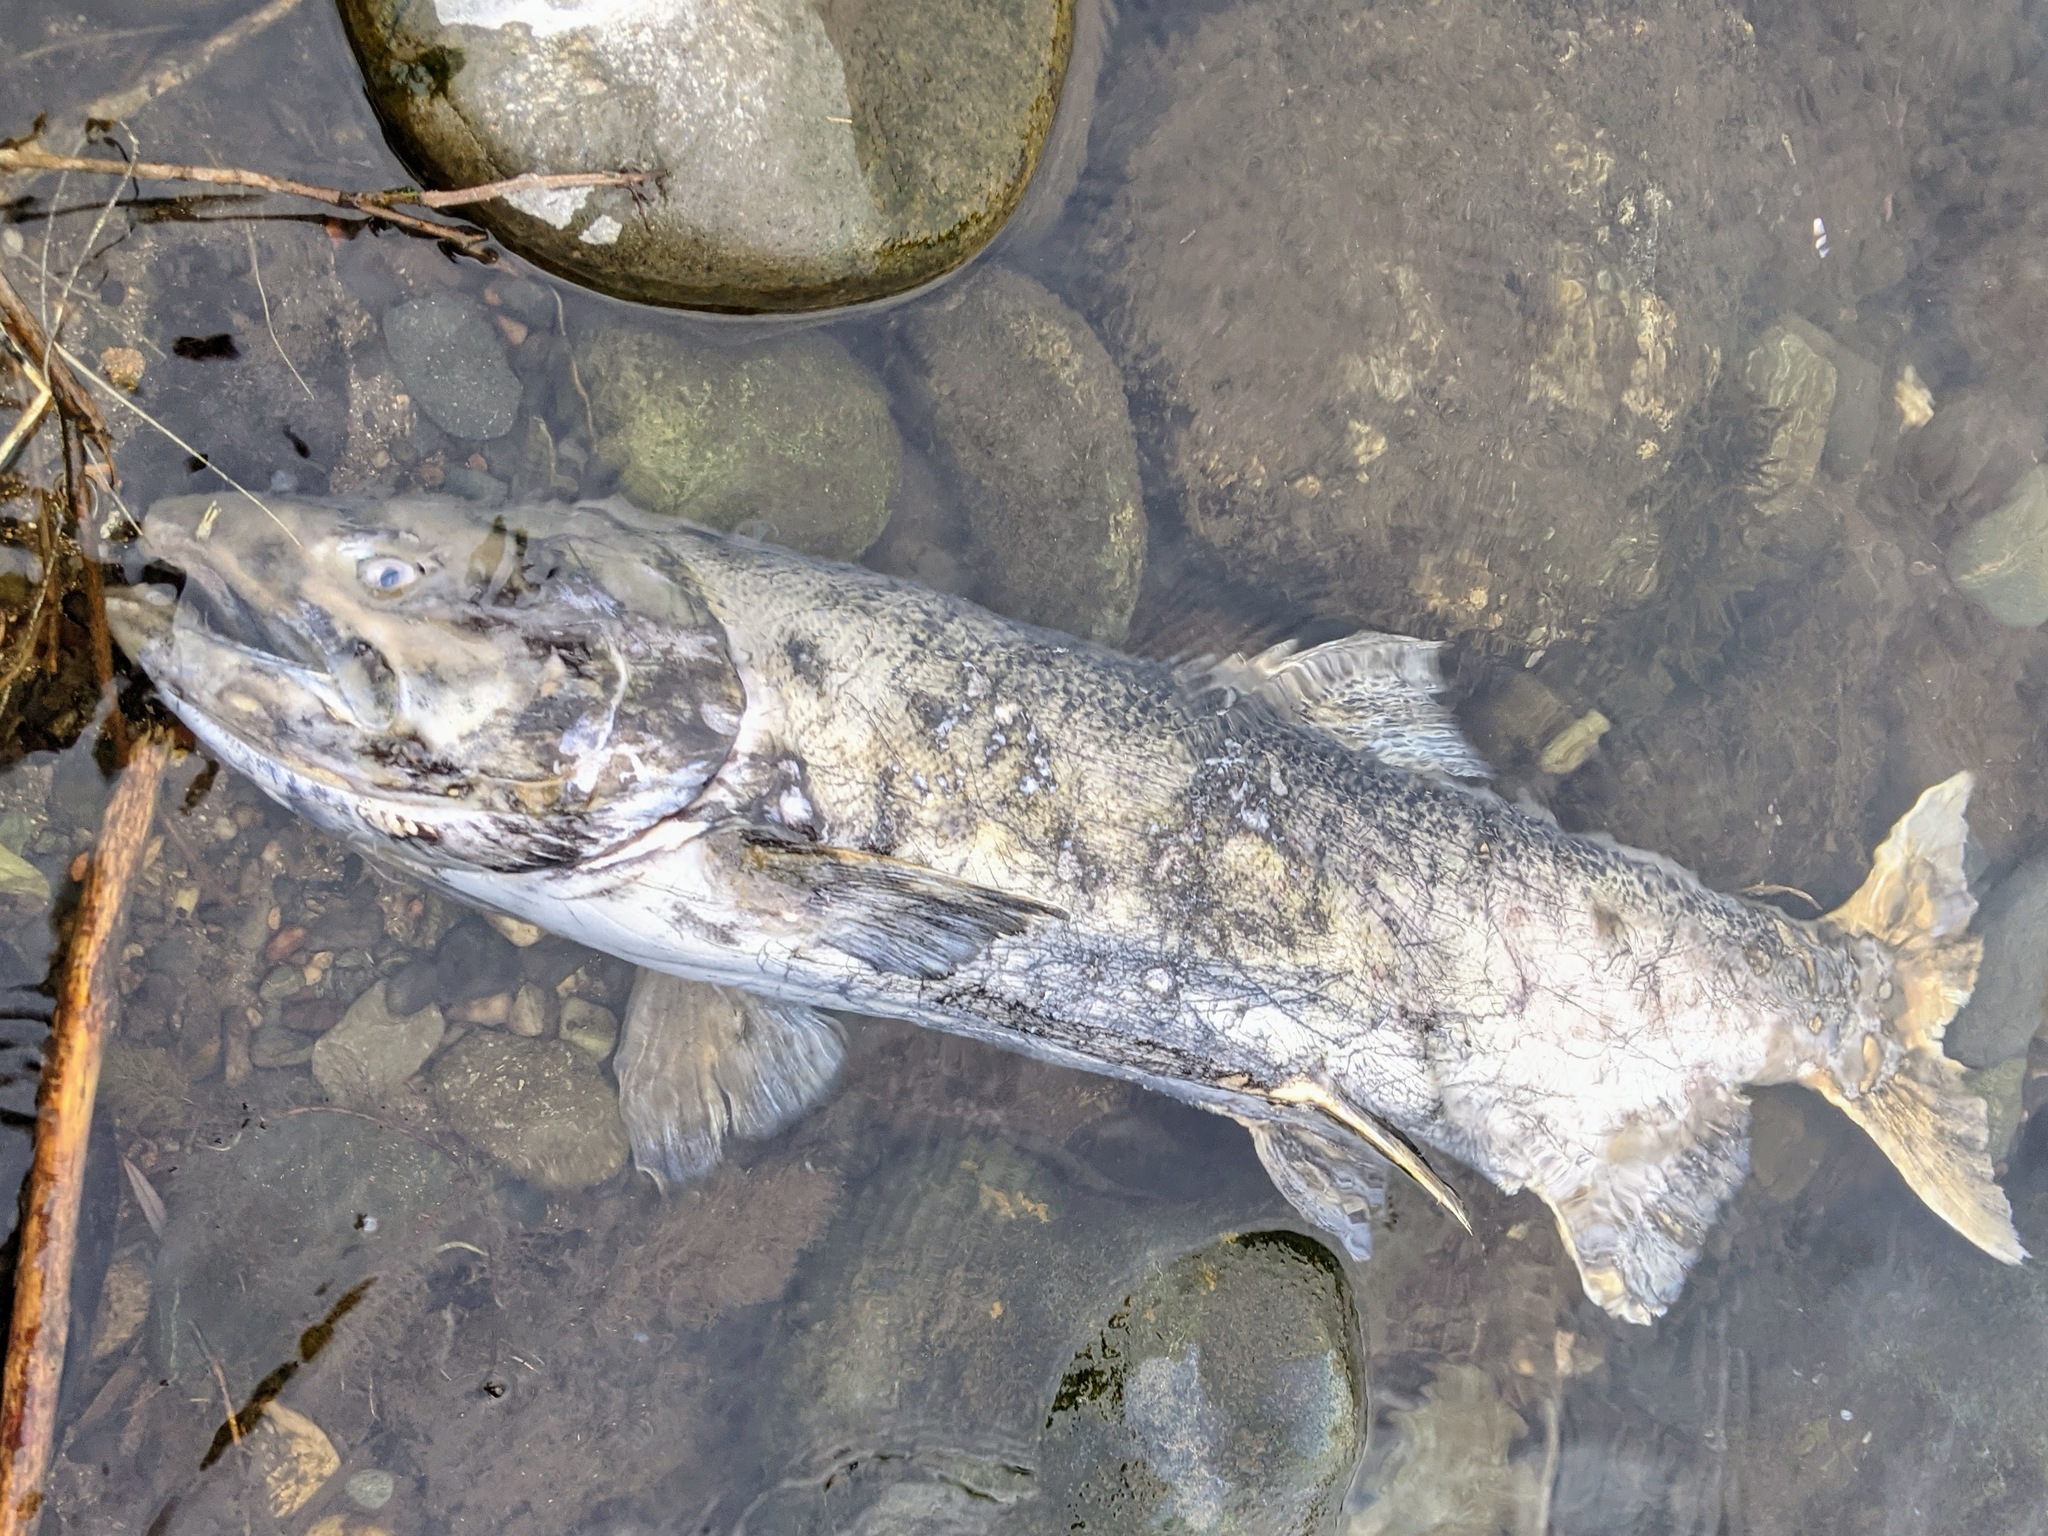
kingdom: Animalia
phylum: Chordata
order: Salmoniformes
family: Salmonidae
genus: Oncorhynchus
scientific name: Oncorhynchus tshawytscha
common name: Chinook salmon
